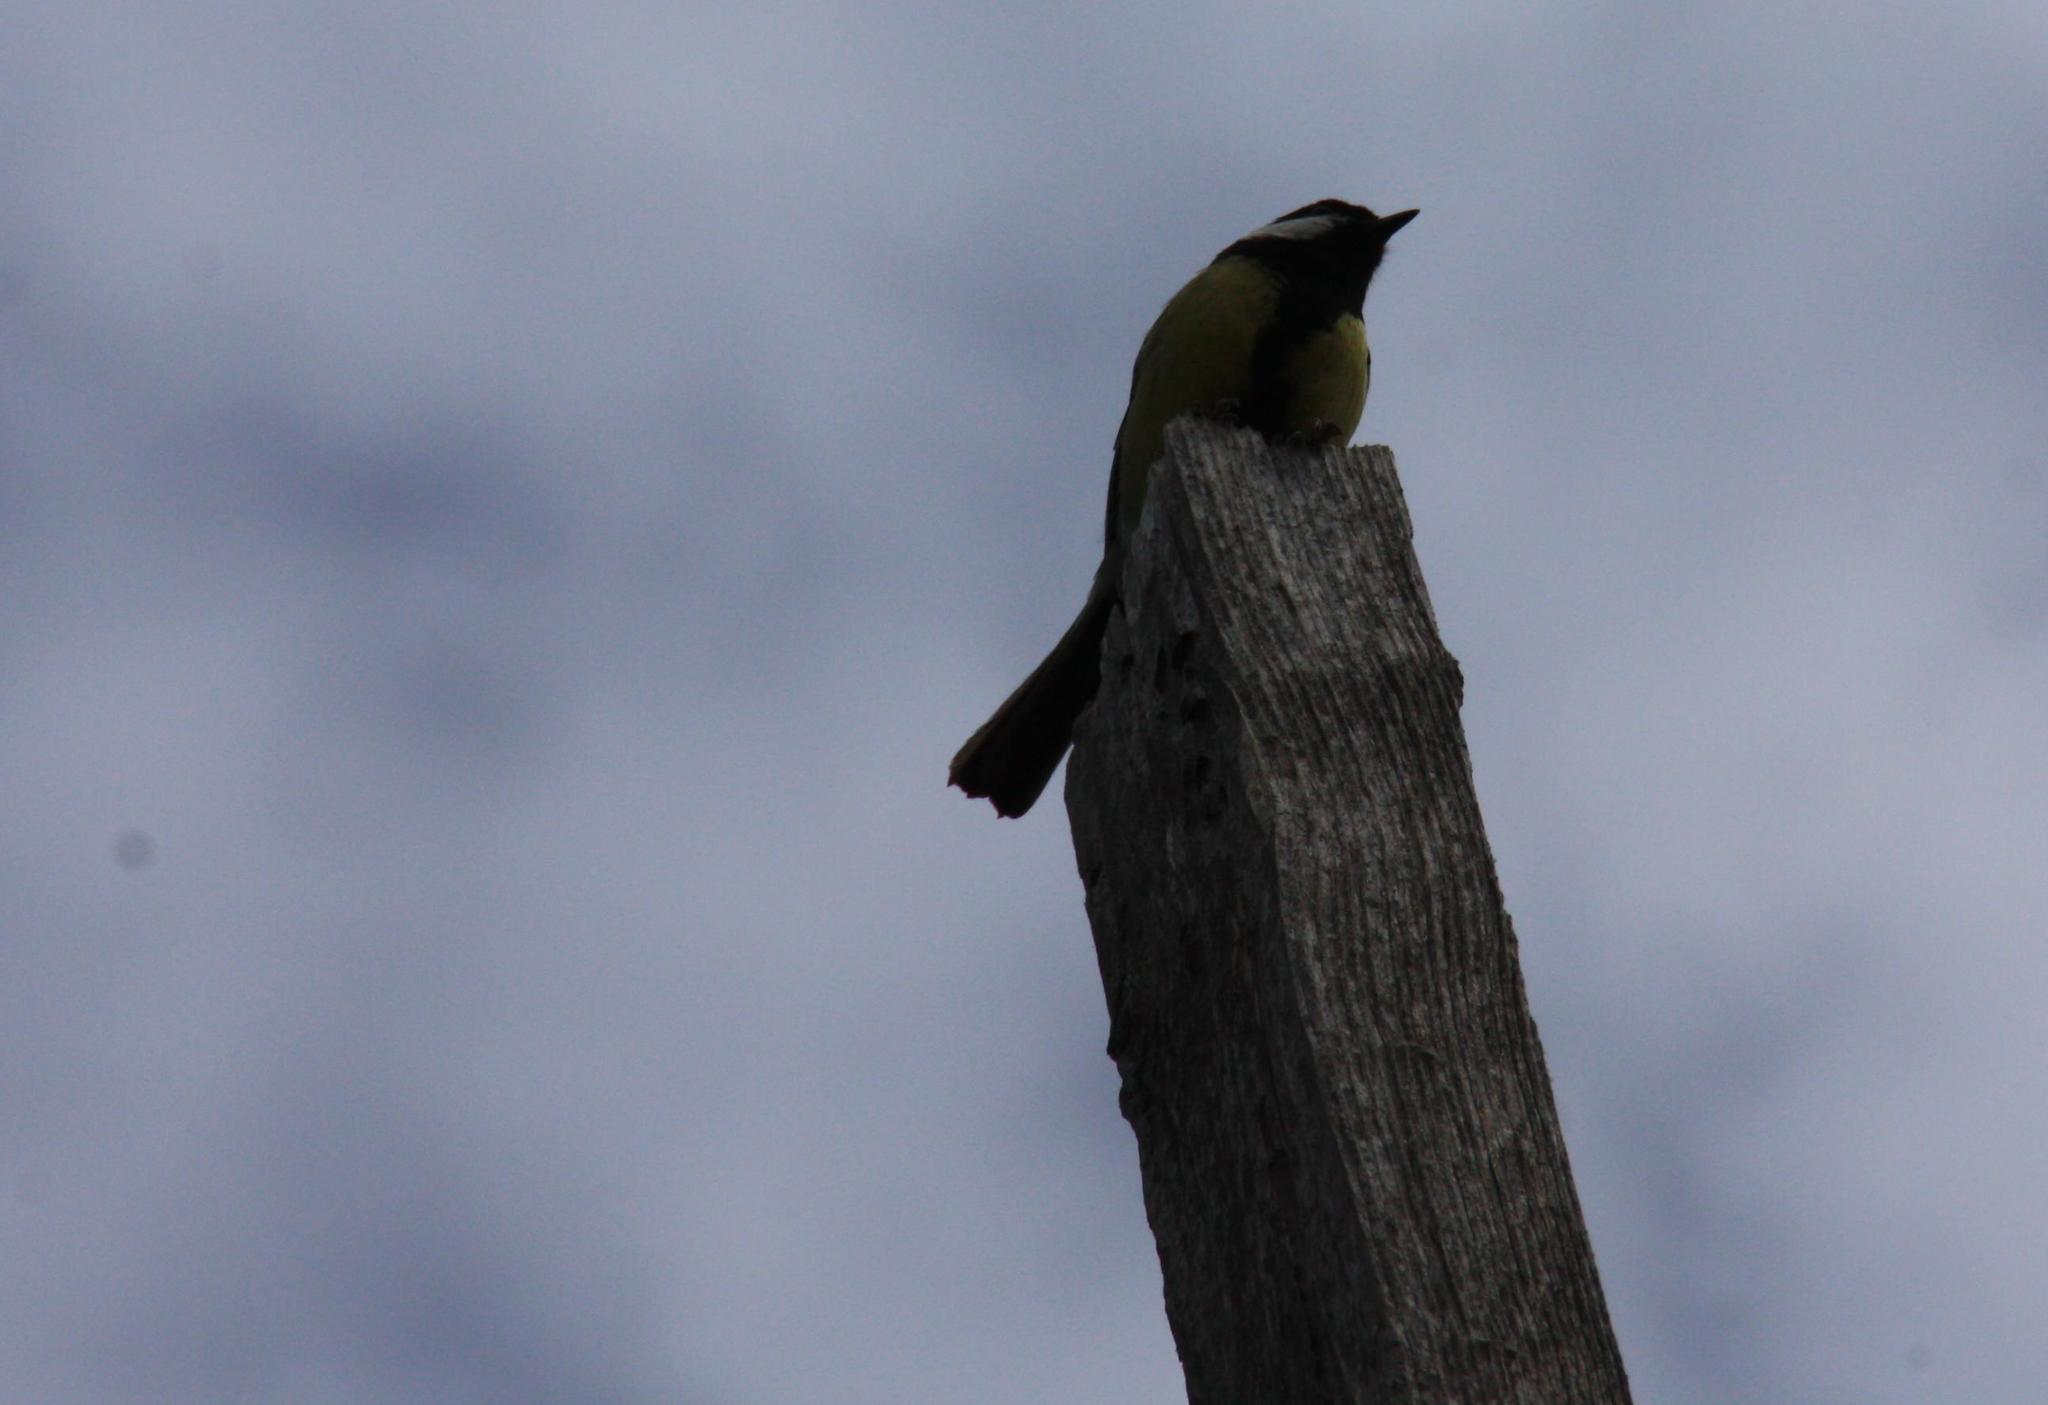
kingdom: Animalia
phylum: Chordata
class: Aves
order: Passeriformes
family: Paridae
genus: Parus
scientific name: Parus major
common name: Great tit
